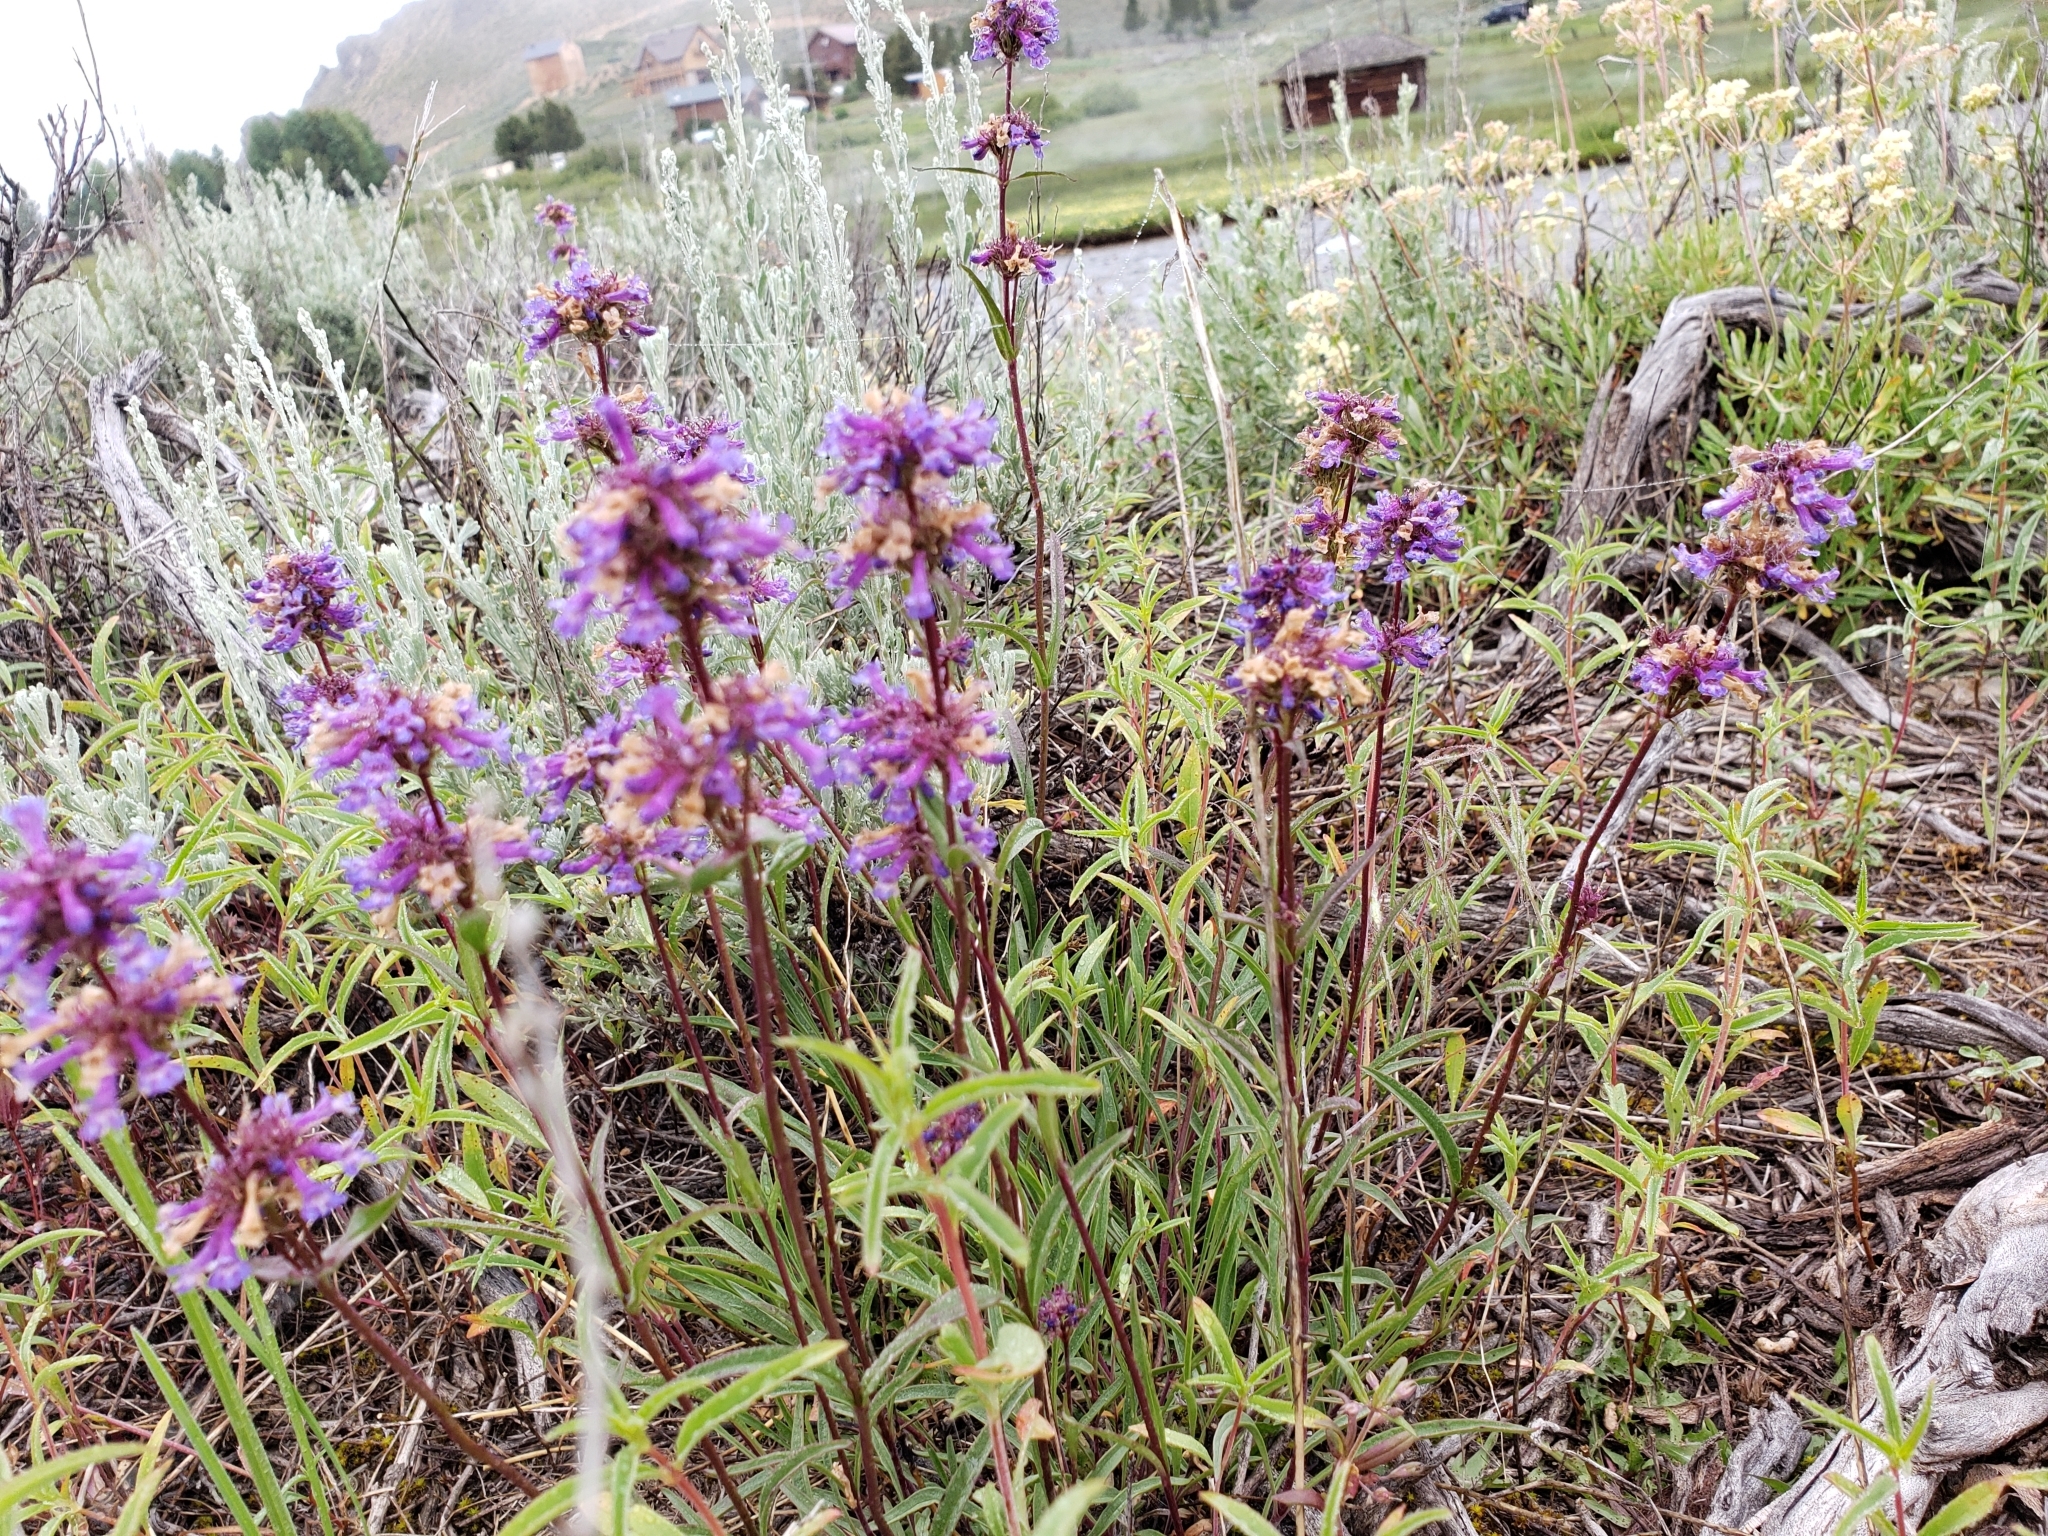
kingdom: Plantae
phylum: Tracheophyta
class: Magnoliopsida
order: Lamiales
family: Plantaginaceae
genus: Penstemon
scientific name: Penstemon rydbergii
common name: Rydberg's beardtongue
